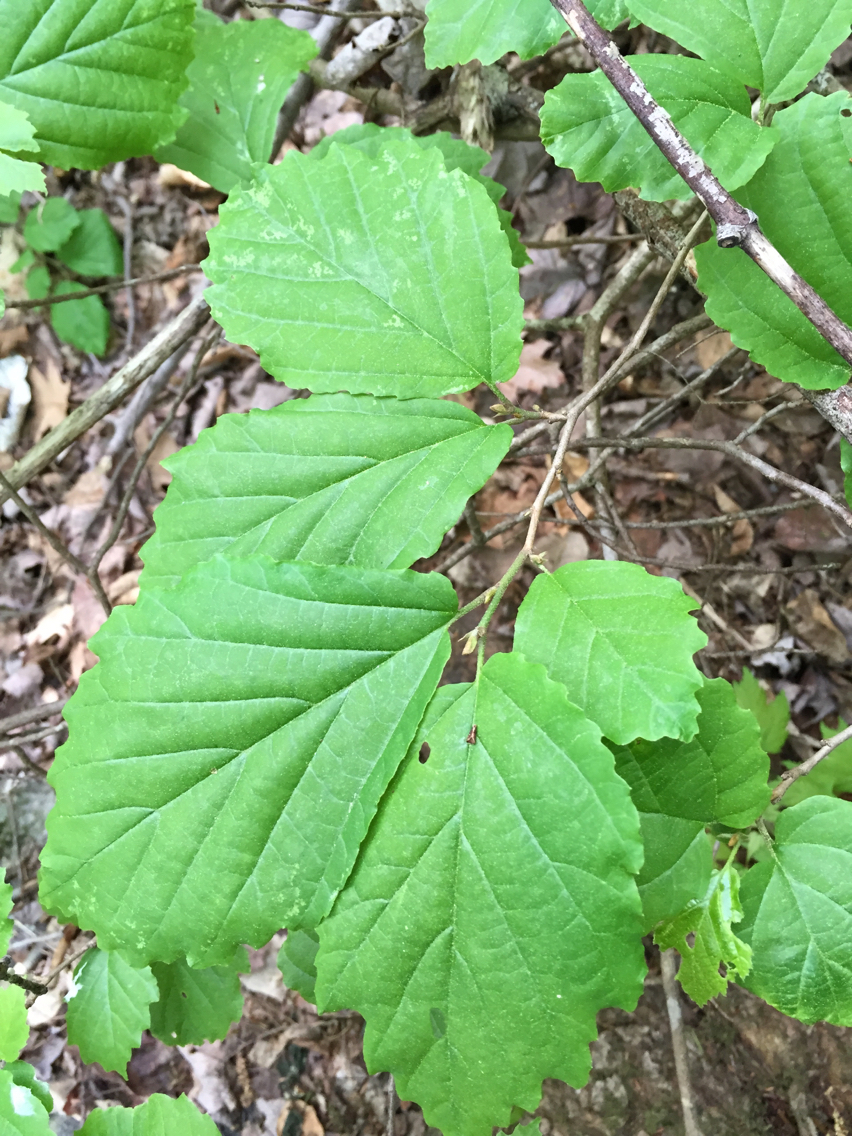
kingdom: Plantae
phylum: Tracheophyta
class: Magnoliopsida
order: Saxifragales
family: Hamamelidaceae
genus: Hamamelis
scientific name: Hamamelis virginiana
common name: Witch-hazel
